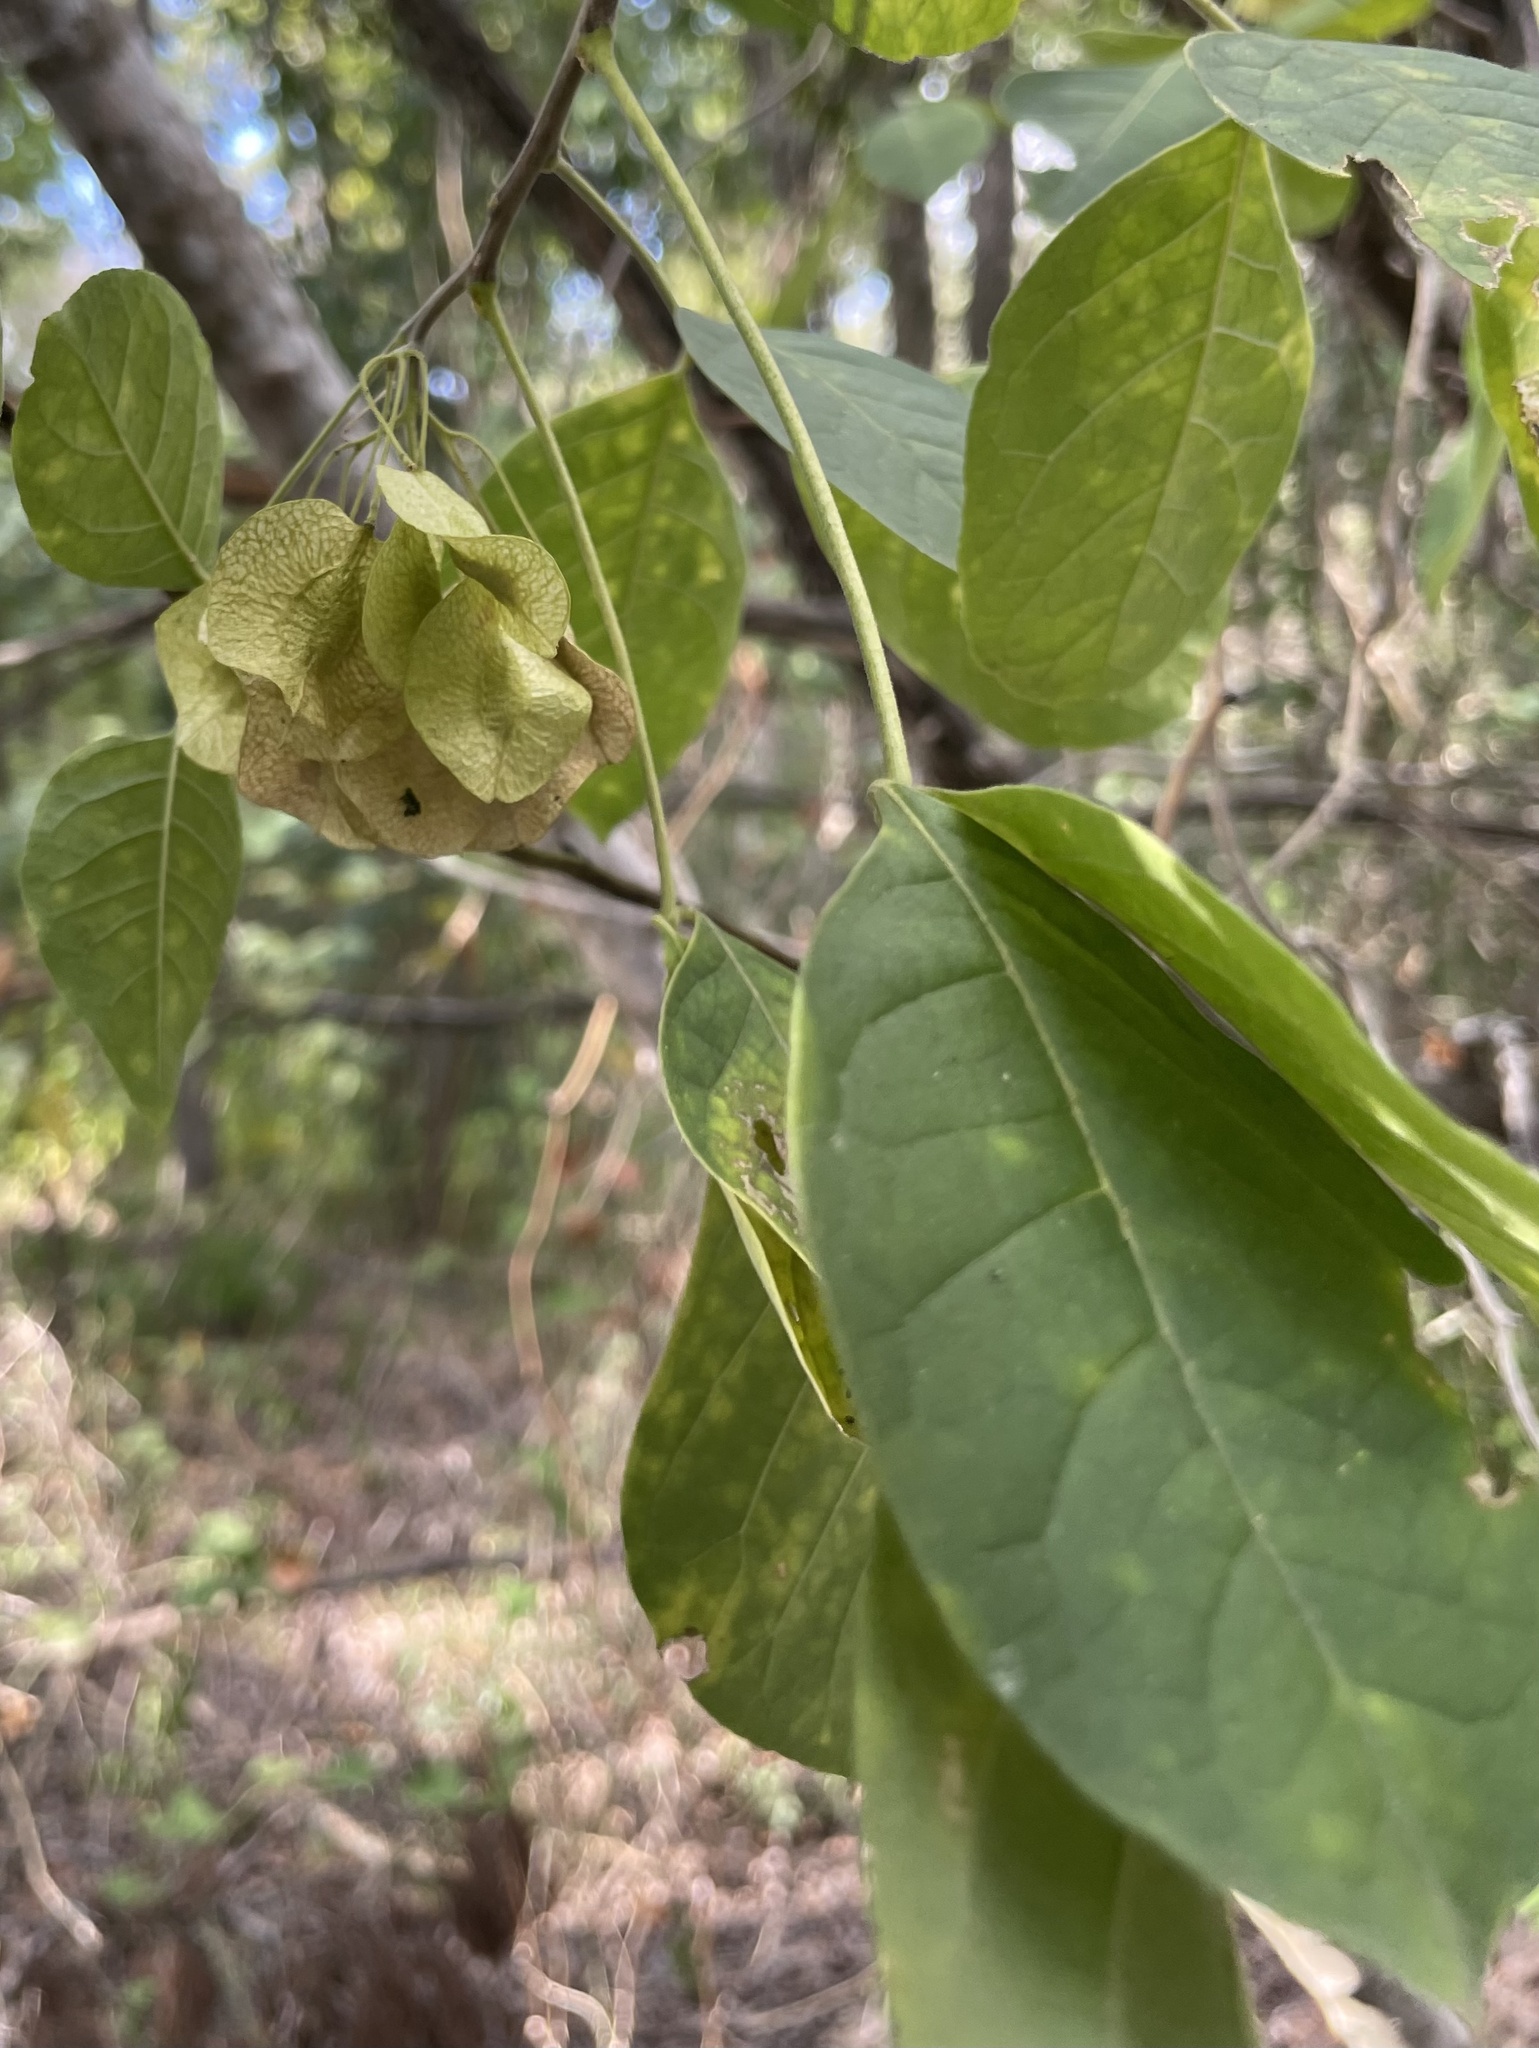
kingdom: Plantae
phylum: Tracheophyta
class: Magnoliopsida
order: Sapindales
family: Rutaceae
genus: Ptelea
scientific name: Ptelea trifoliata
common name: Common hop-tree
